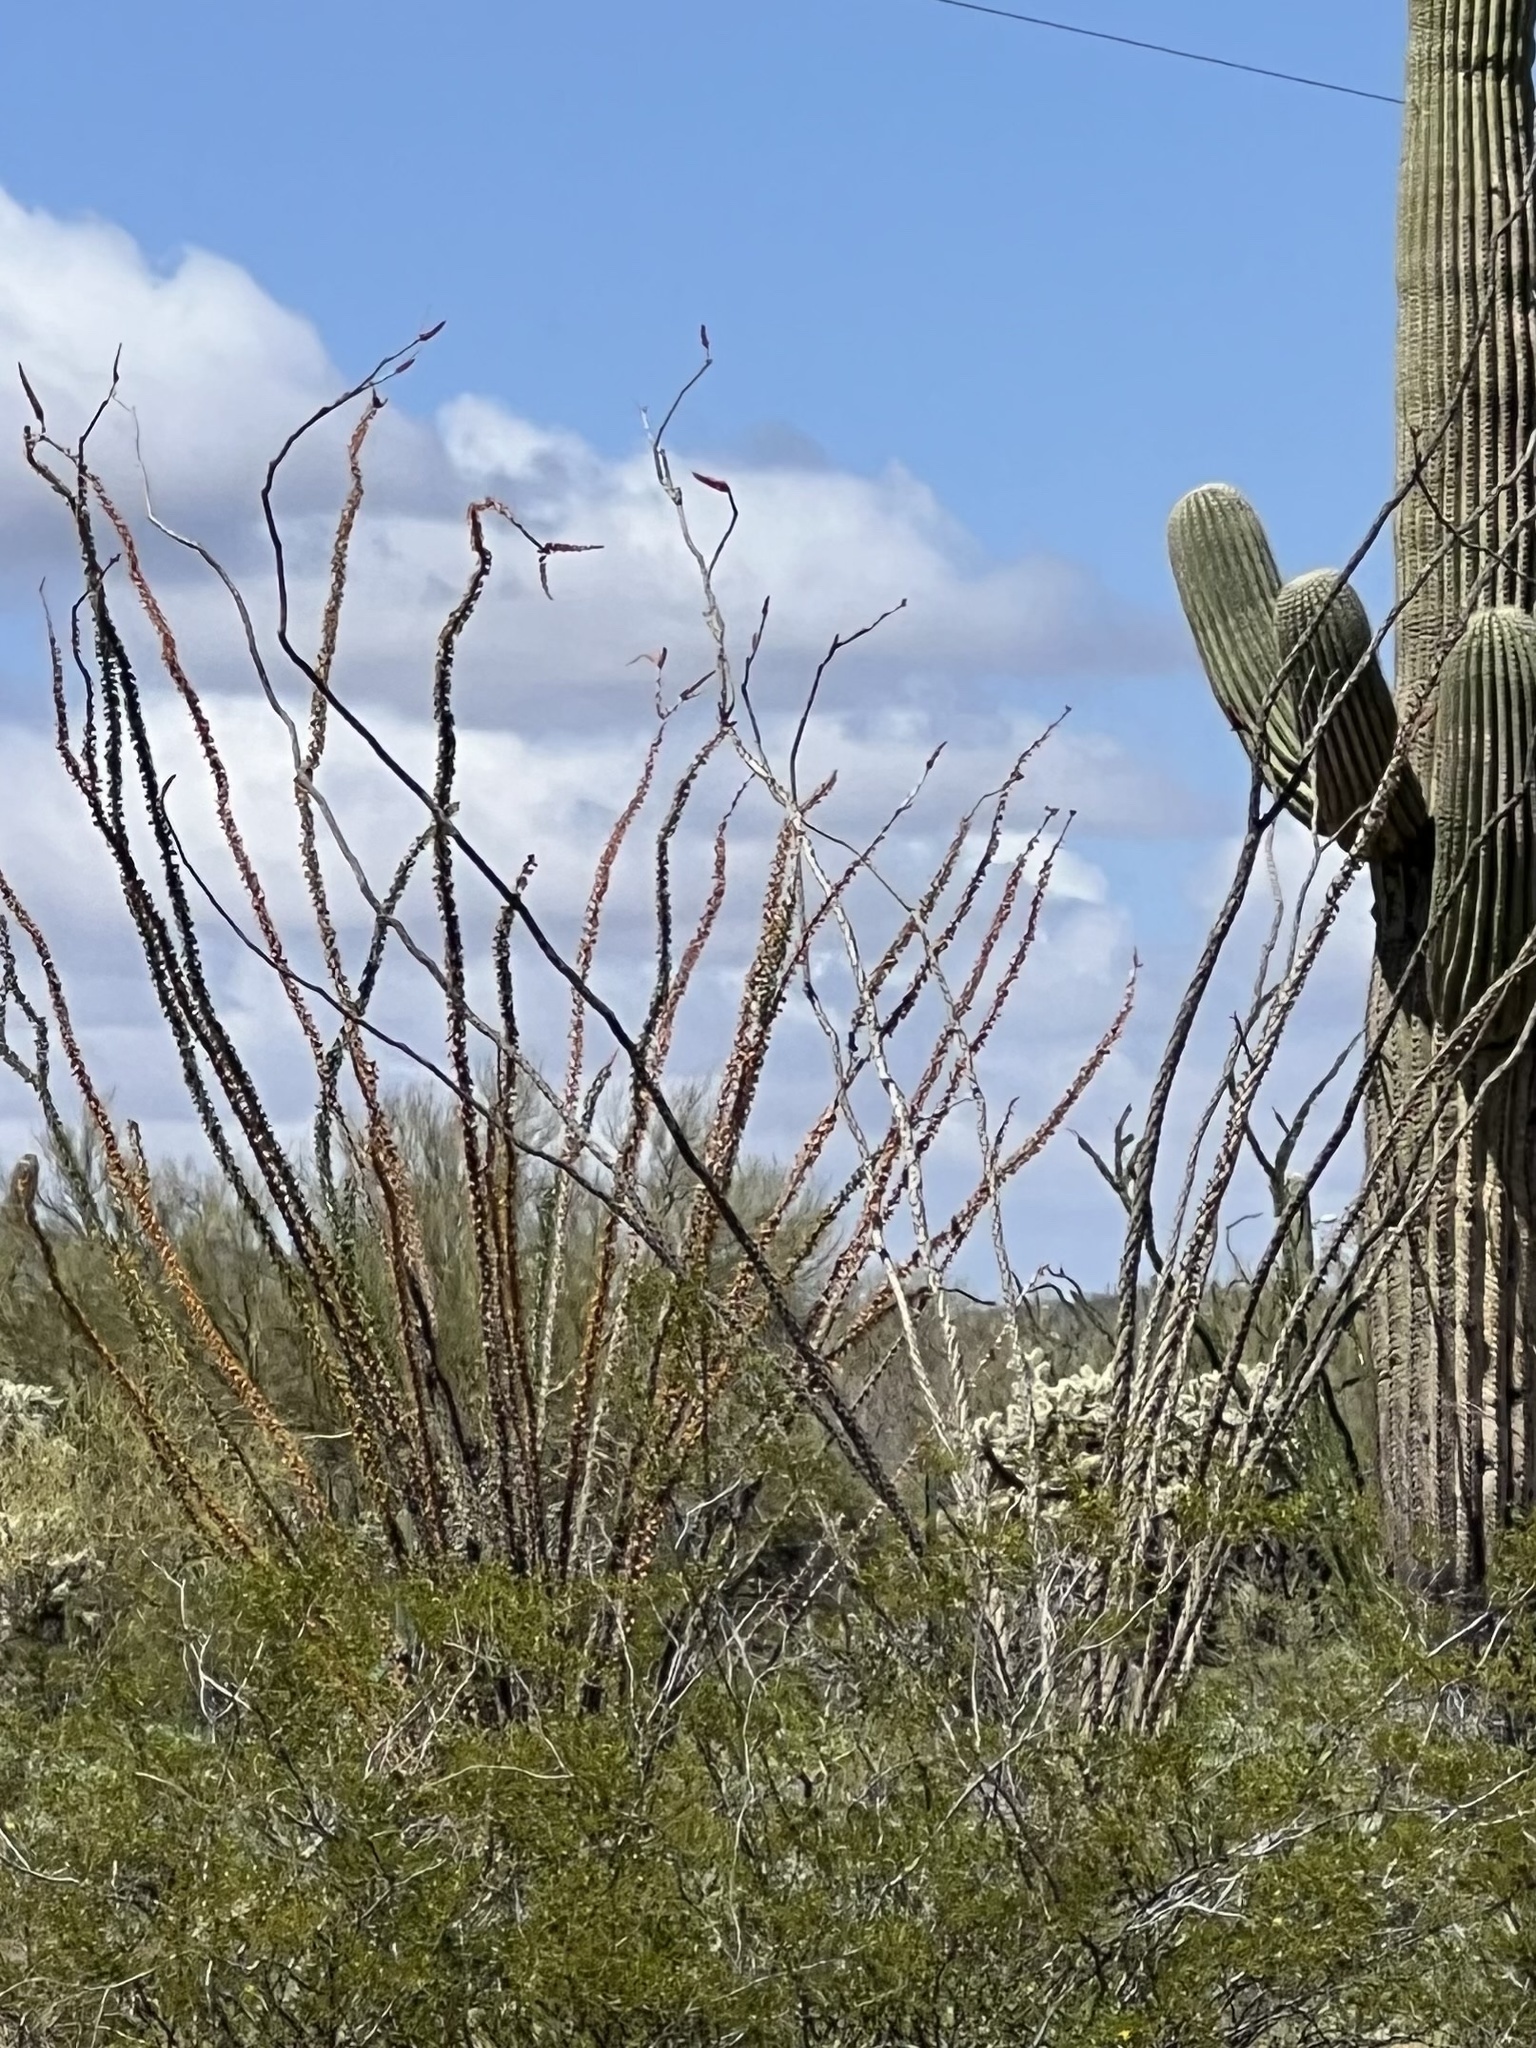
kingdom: Plantae
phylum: Tracheophyta
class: Magnoliopsida
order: Ericales
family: Fouquieriaceae
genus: Fouquieria
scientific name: Fouquieria splendens
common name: Vine-cactus
